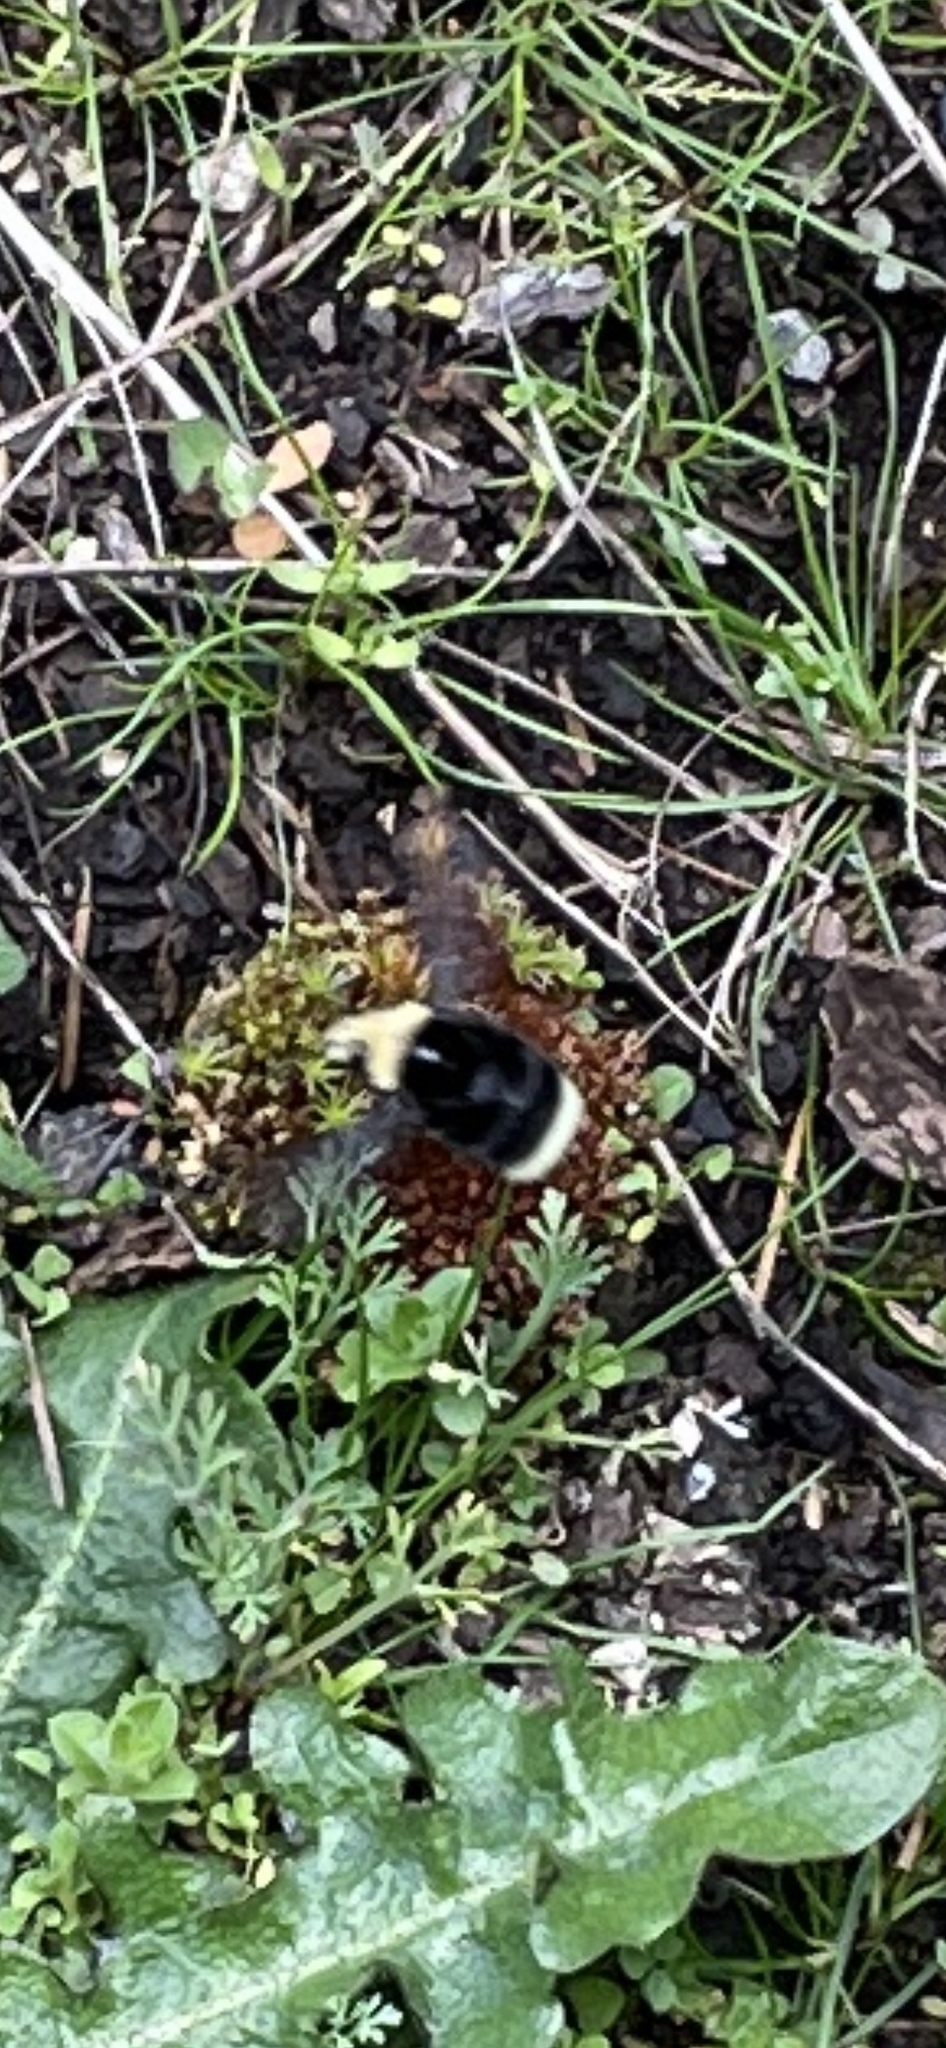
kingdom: Animalia
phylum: Arthropoda
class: Insecta
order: Hymenoptera
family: Apidae
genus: Bombus
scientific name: Bombus vosnesenskii
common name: Vosnesensky bumble bee
